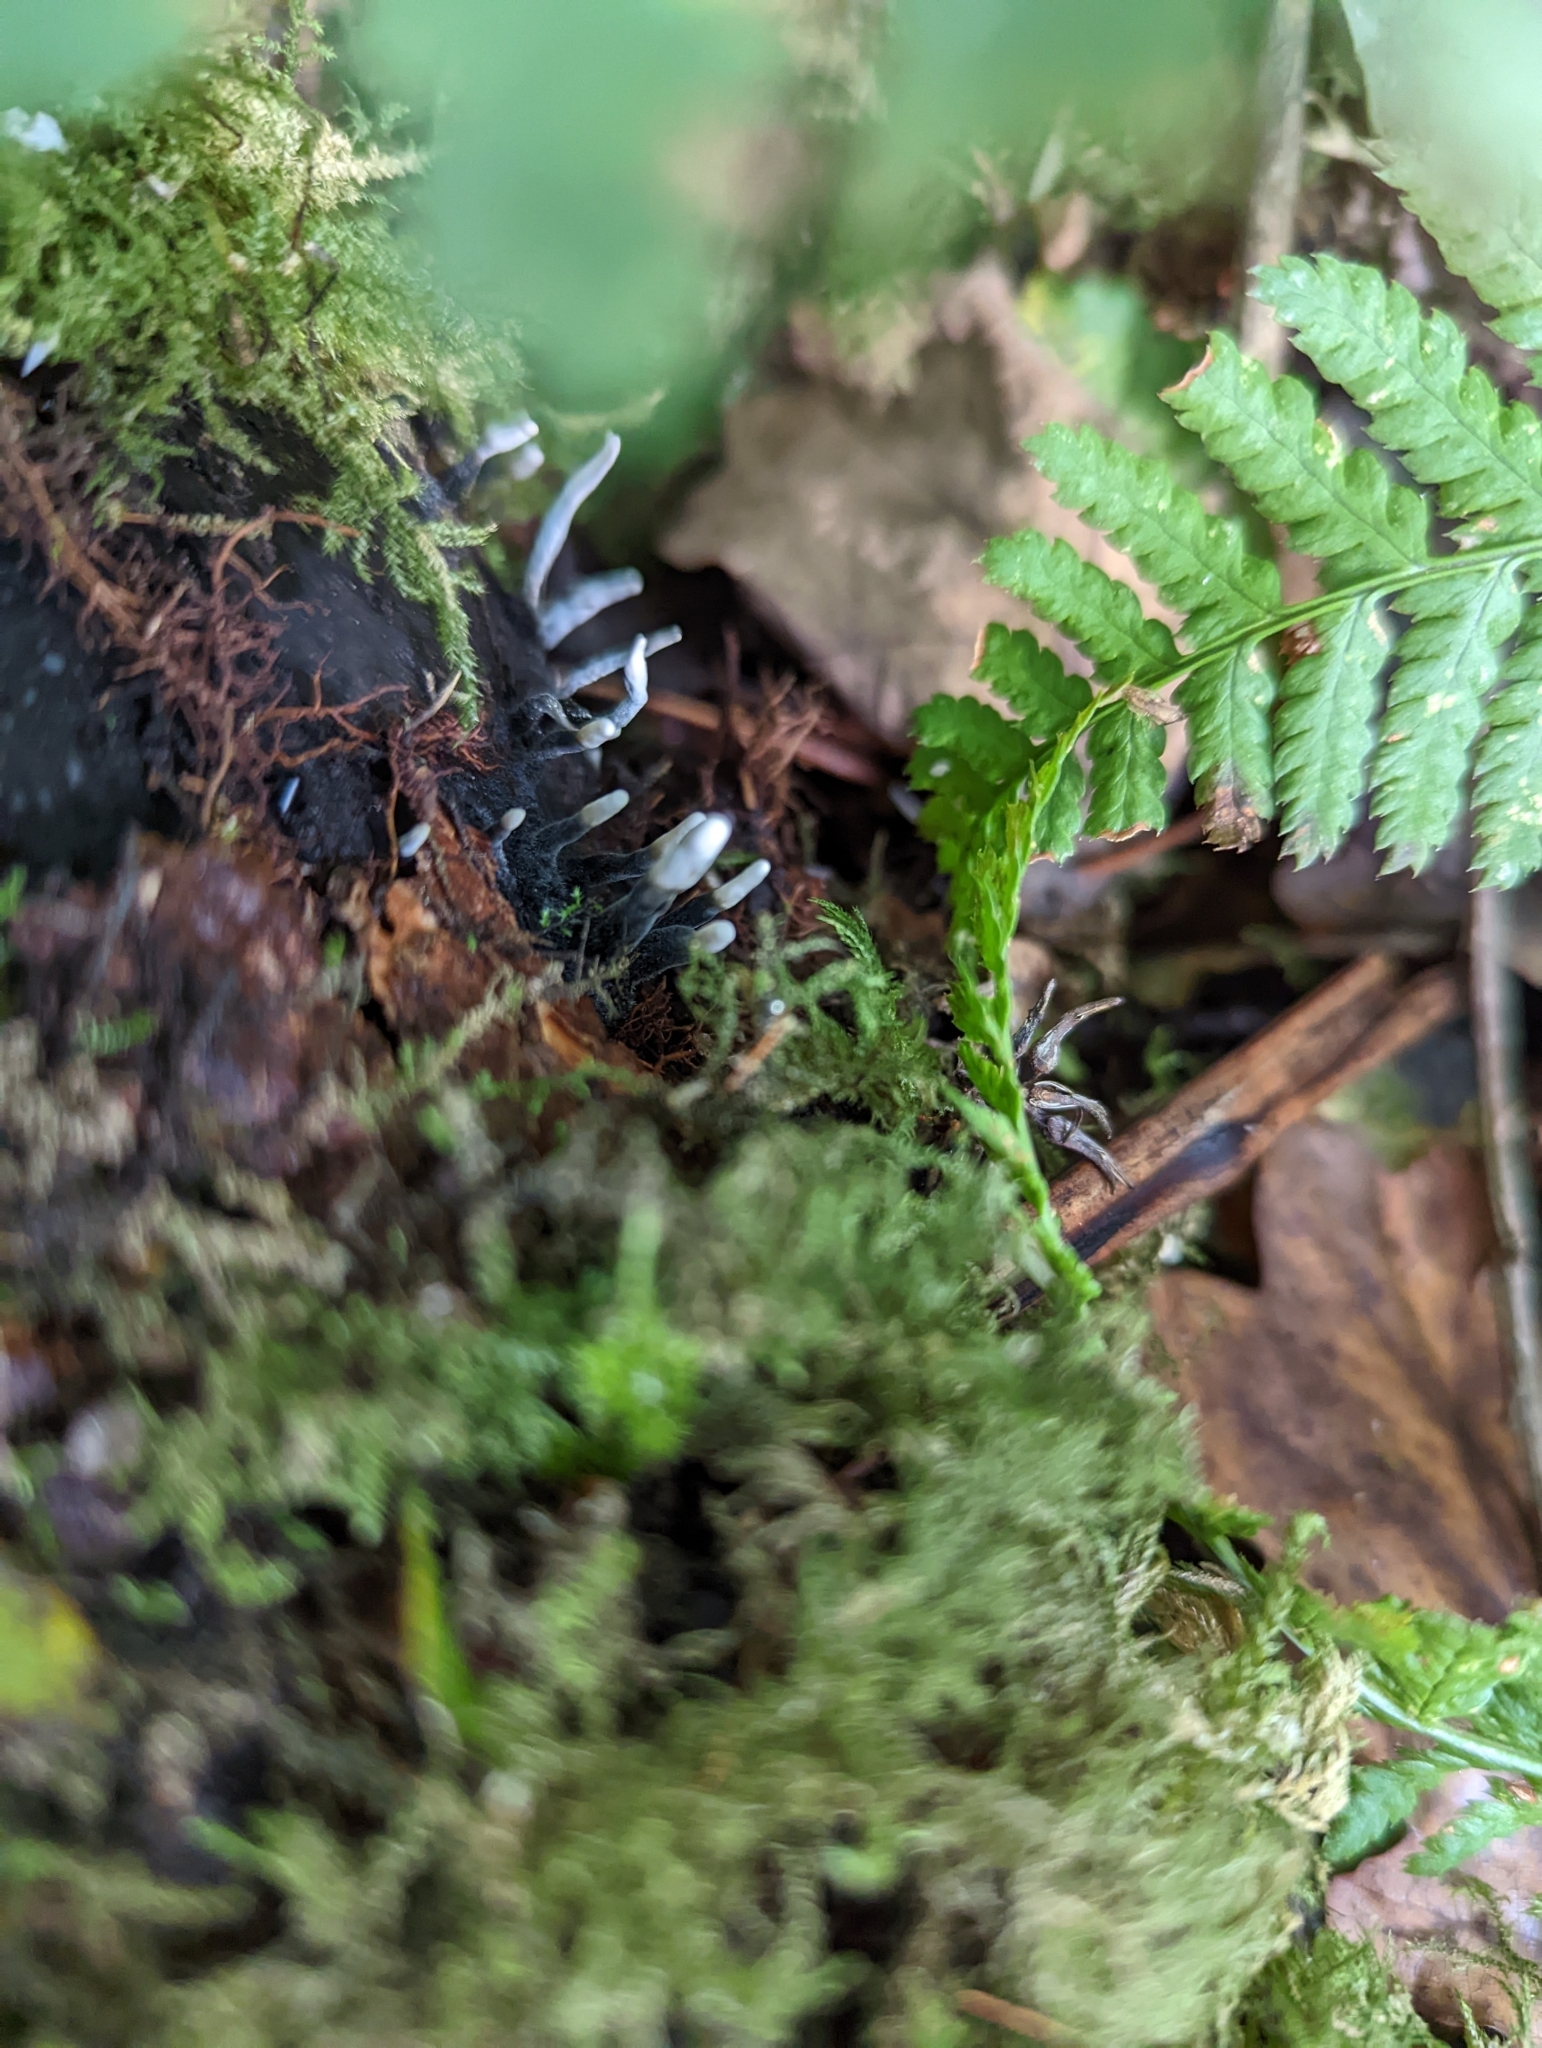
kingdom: Fungi
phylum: Ascomycota
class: Sordariomycetes
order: Xylariales
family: Xylariaceae
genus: Xylaria
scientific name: Xylaria hypoxylon
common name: Candle-snuff fungus
